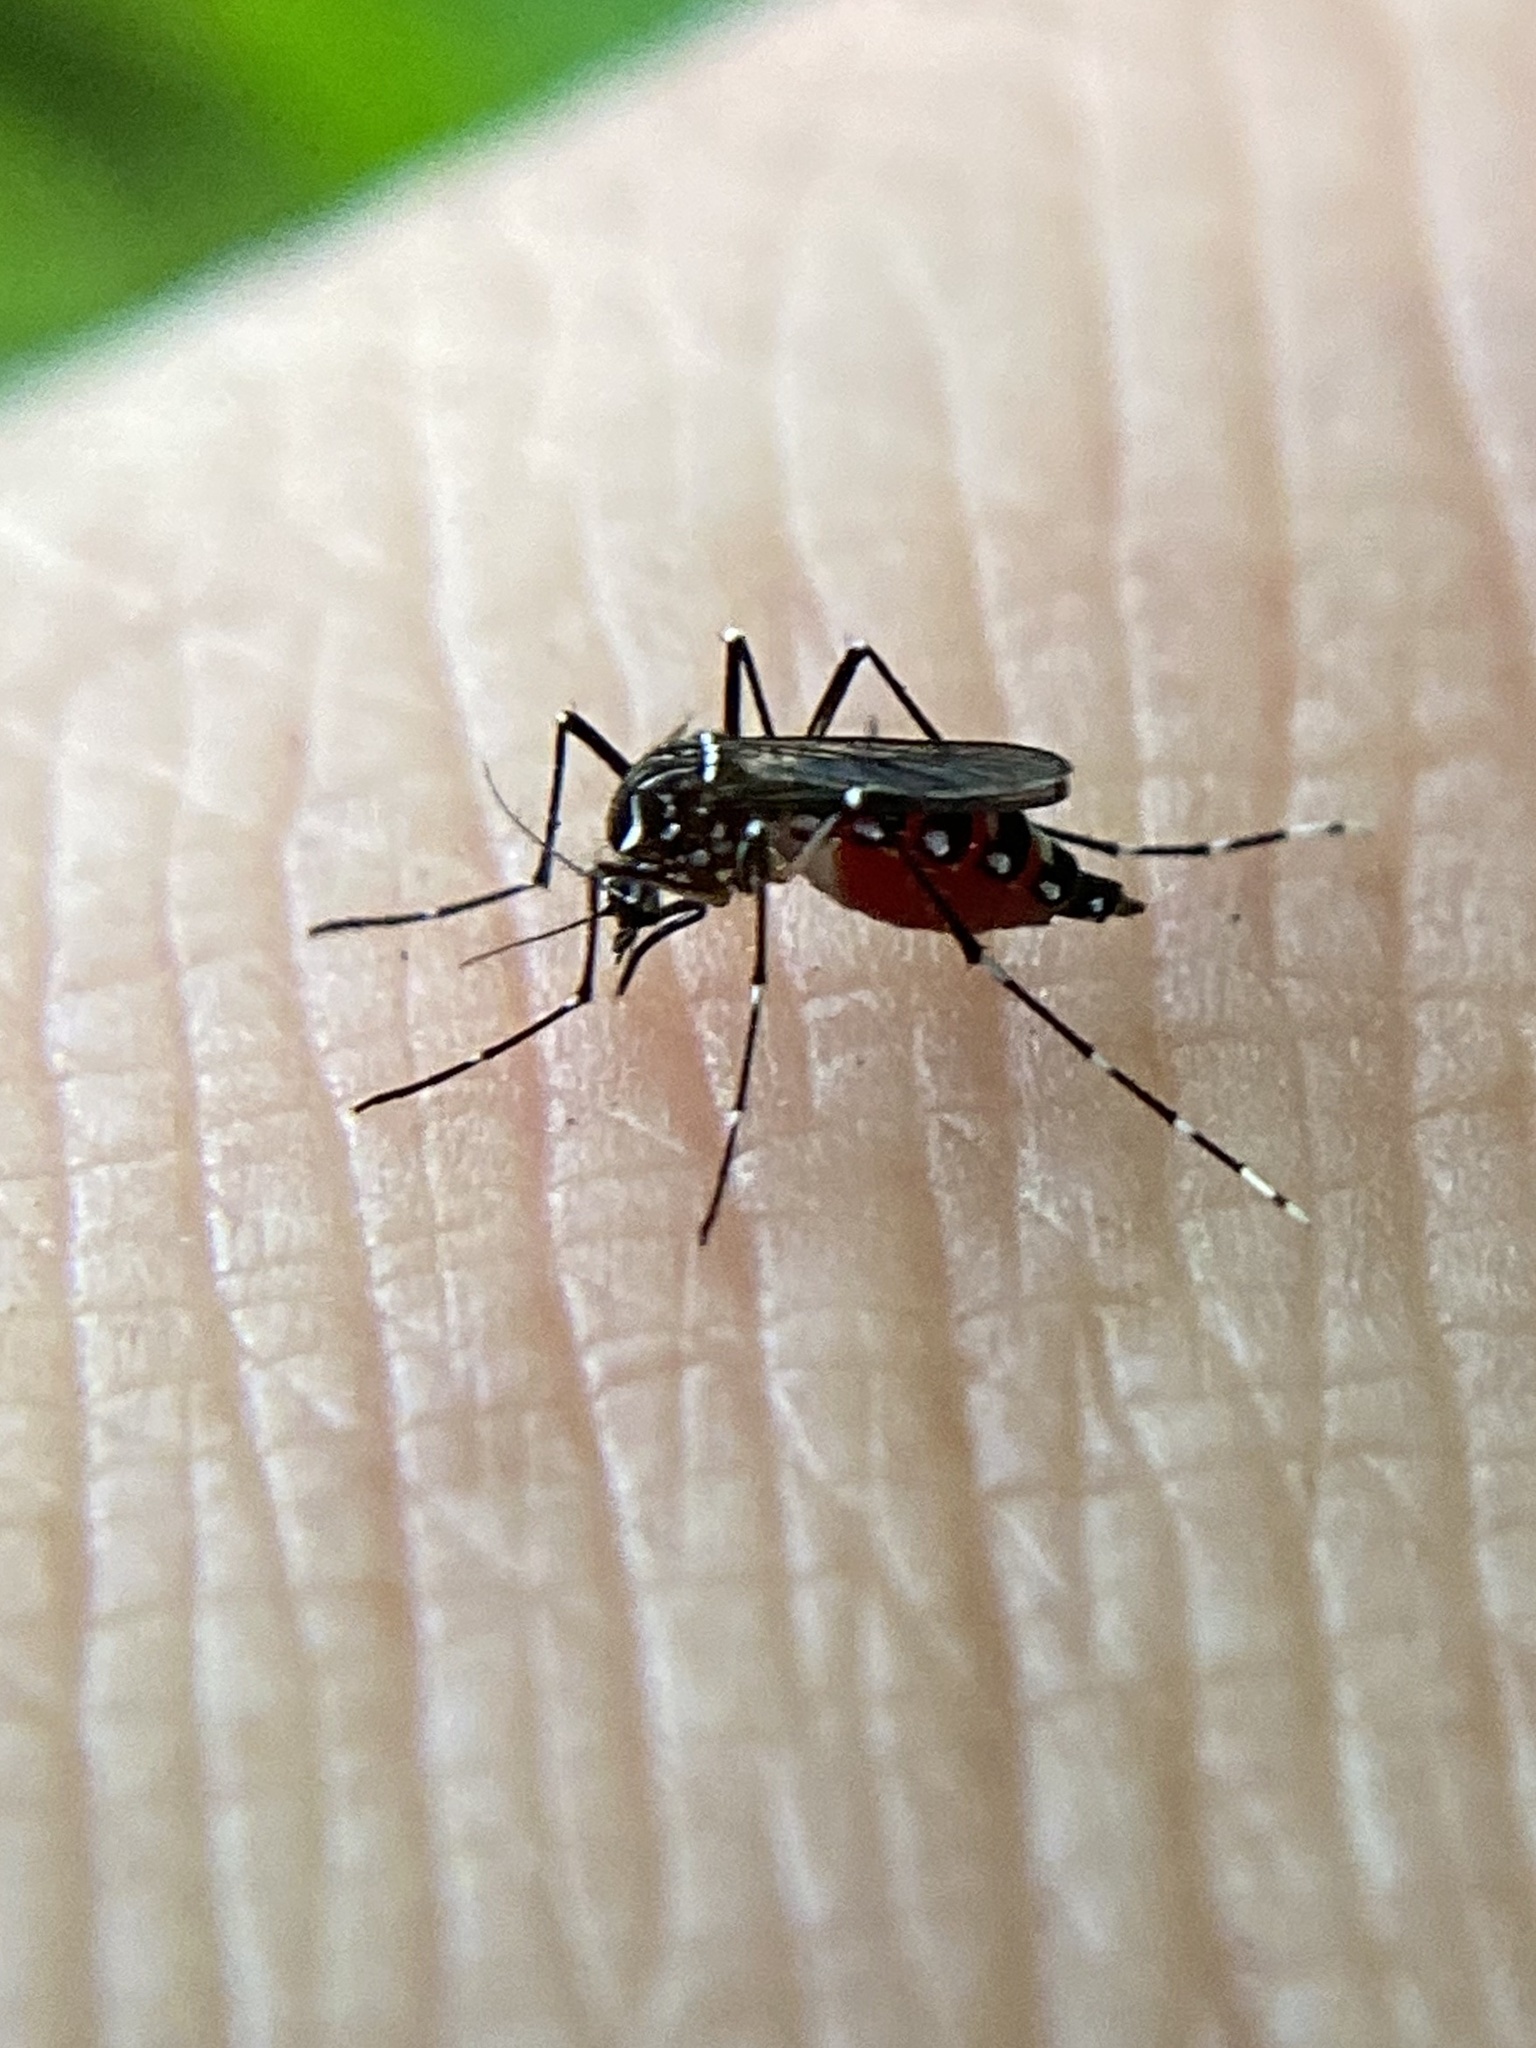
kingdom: Animalia
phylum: Arthropoda
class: Insecta
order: Diptera
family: Culicidae
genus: Aedes
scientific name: Aedes aegypti
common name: Yellow fever mosquito
